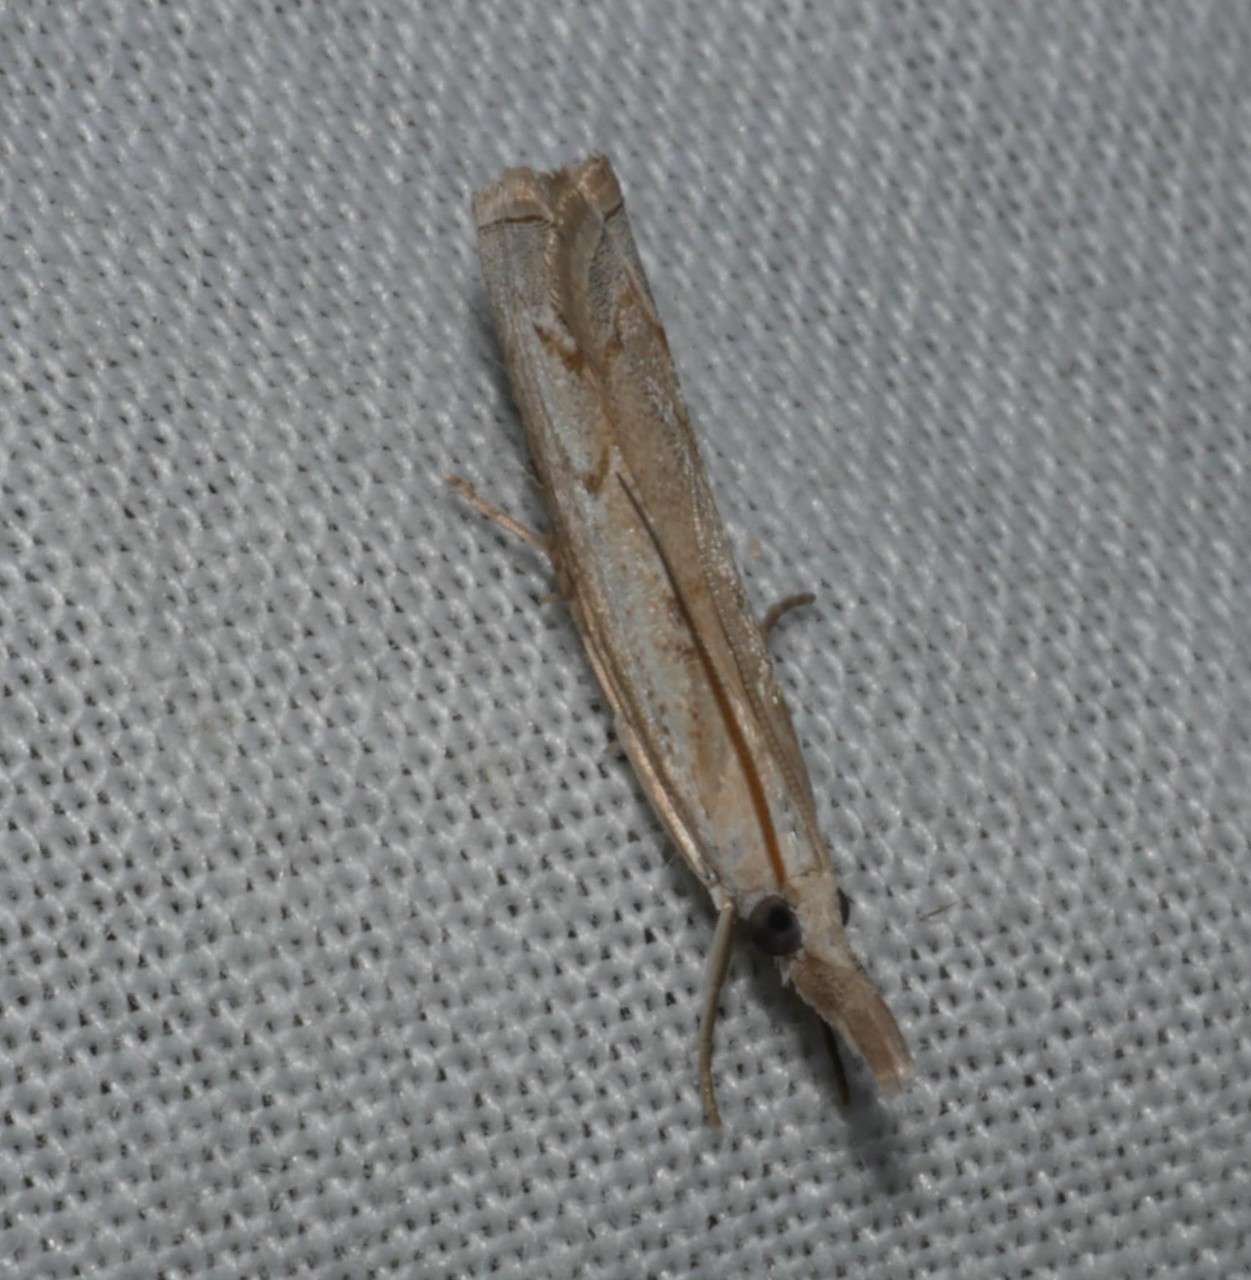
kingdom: Animalia
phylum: Arthropoda
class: Insecta
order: Lepidoptera
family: Crambidae
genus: Culladia
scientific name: Culladia cuneiferellus
